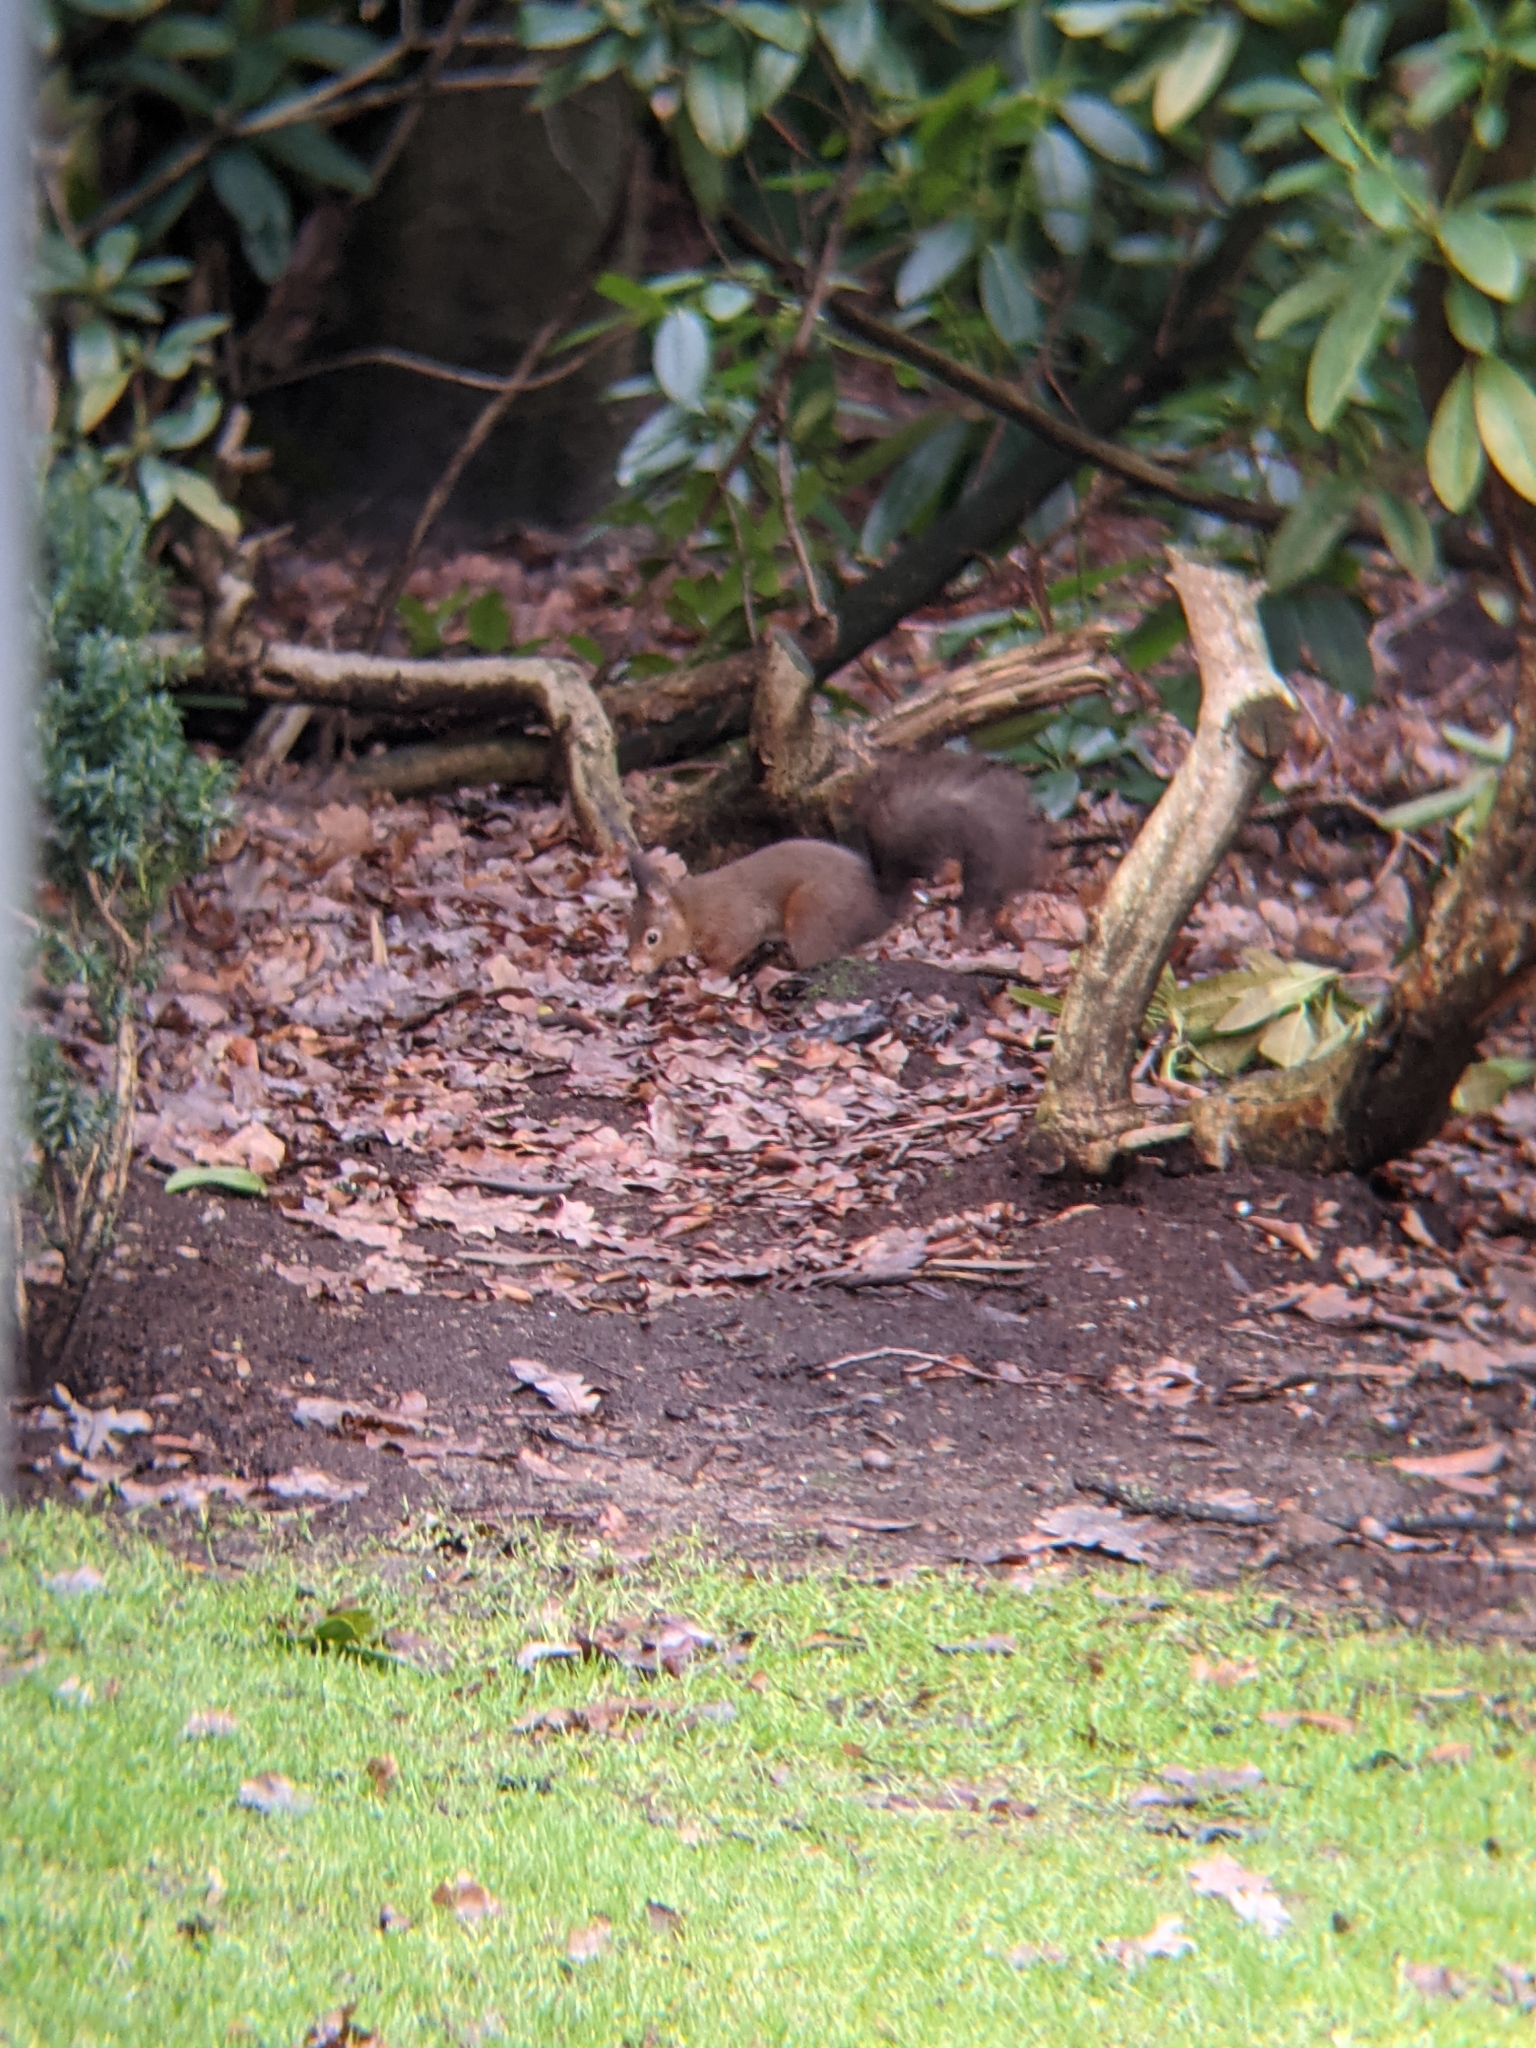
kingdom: Animalia
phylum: Chordata
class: Mammalia
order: Rodentia
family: Sciuridae
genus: Sciurus
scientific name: Sciurus vulgaris
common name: Eurasian red squirrel
